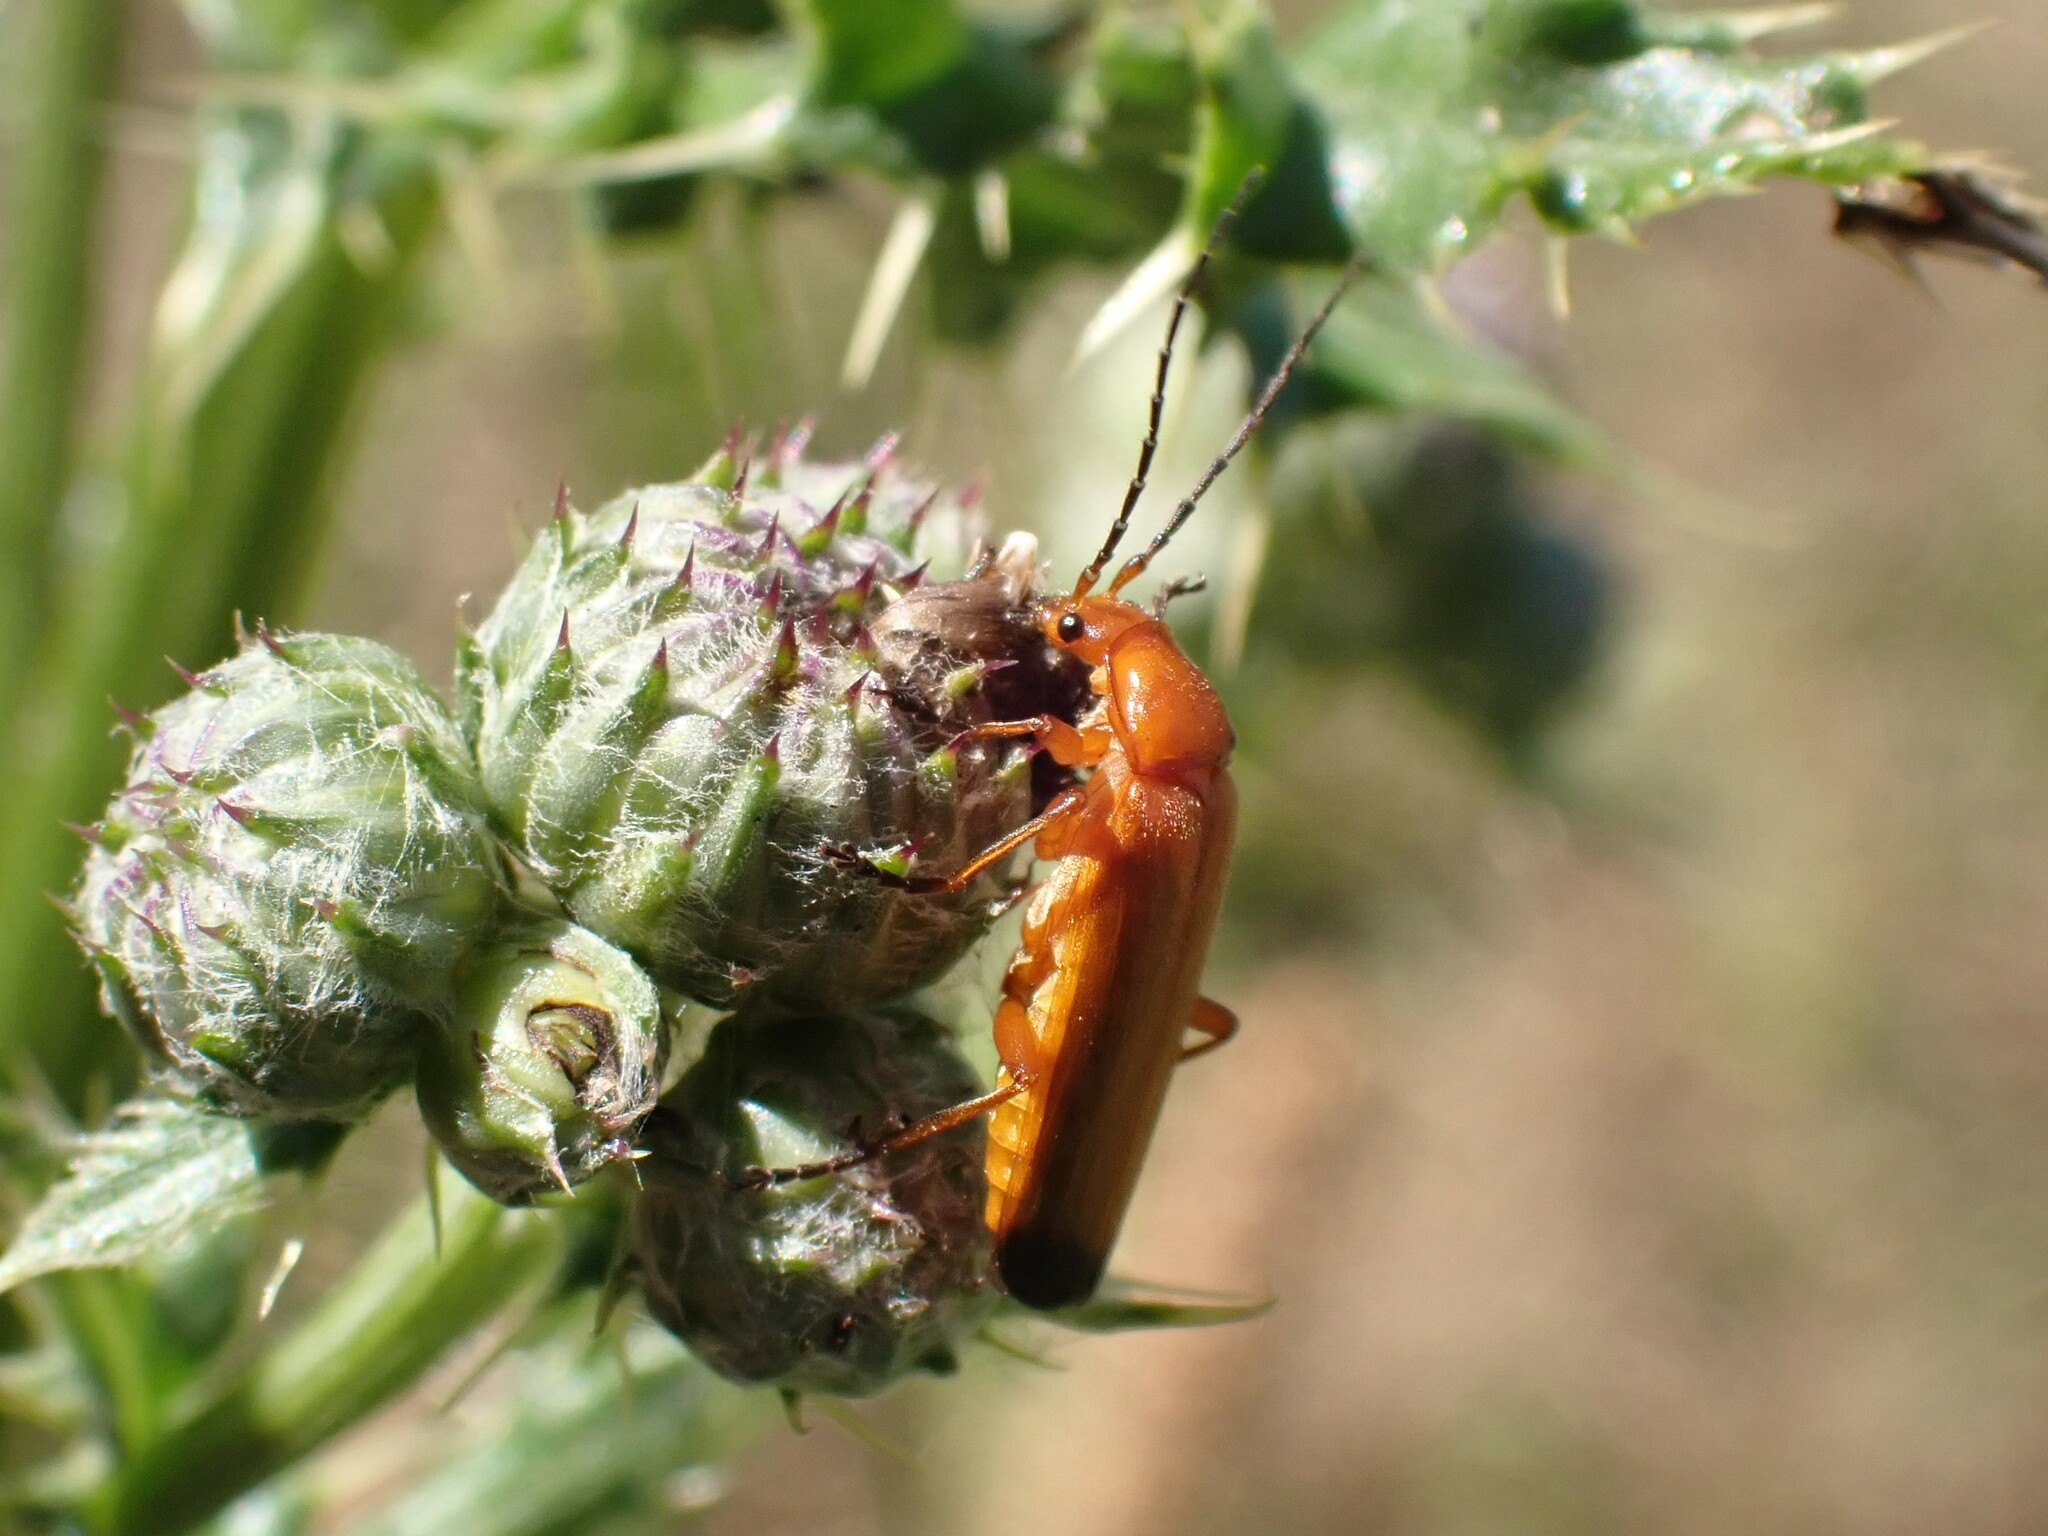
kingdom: Animalia
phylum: Arthropoda
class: Insecta
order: Coleoptera
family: Cantharidae
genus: Rhagonycha
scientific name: Rhagonycha fulva
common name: Common red soldier beetle
